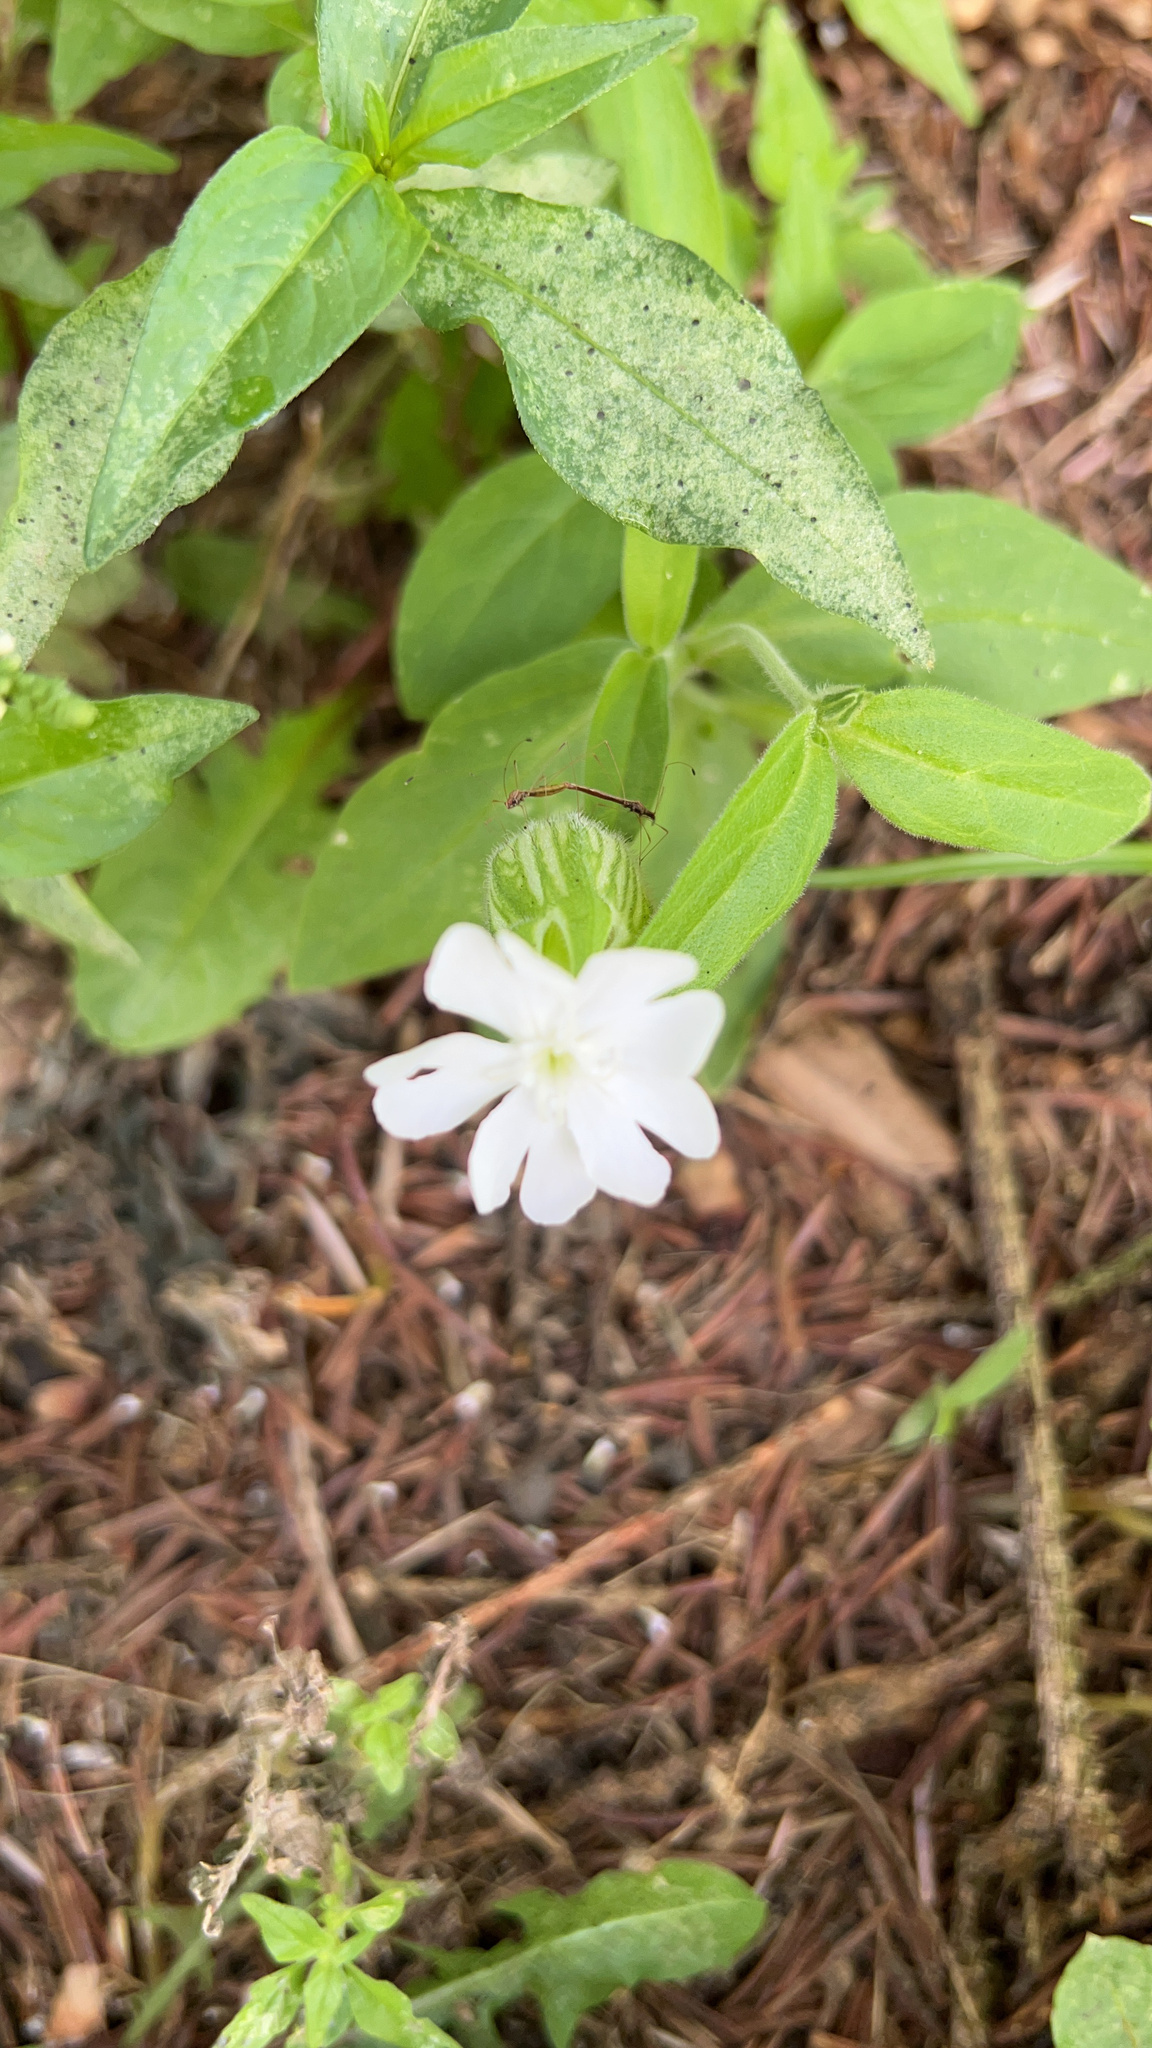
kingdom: Plantae
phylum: Tracheophyta
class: Magnoliopsida
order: Caryophyllales
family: Caryophyllaceae
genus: Silene
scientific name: Silene latifolia
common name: White campion
